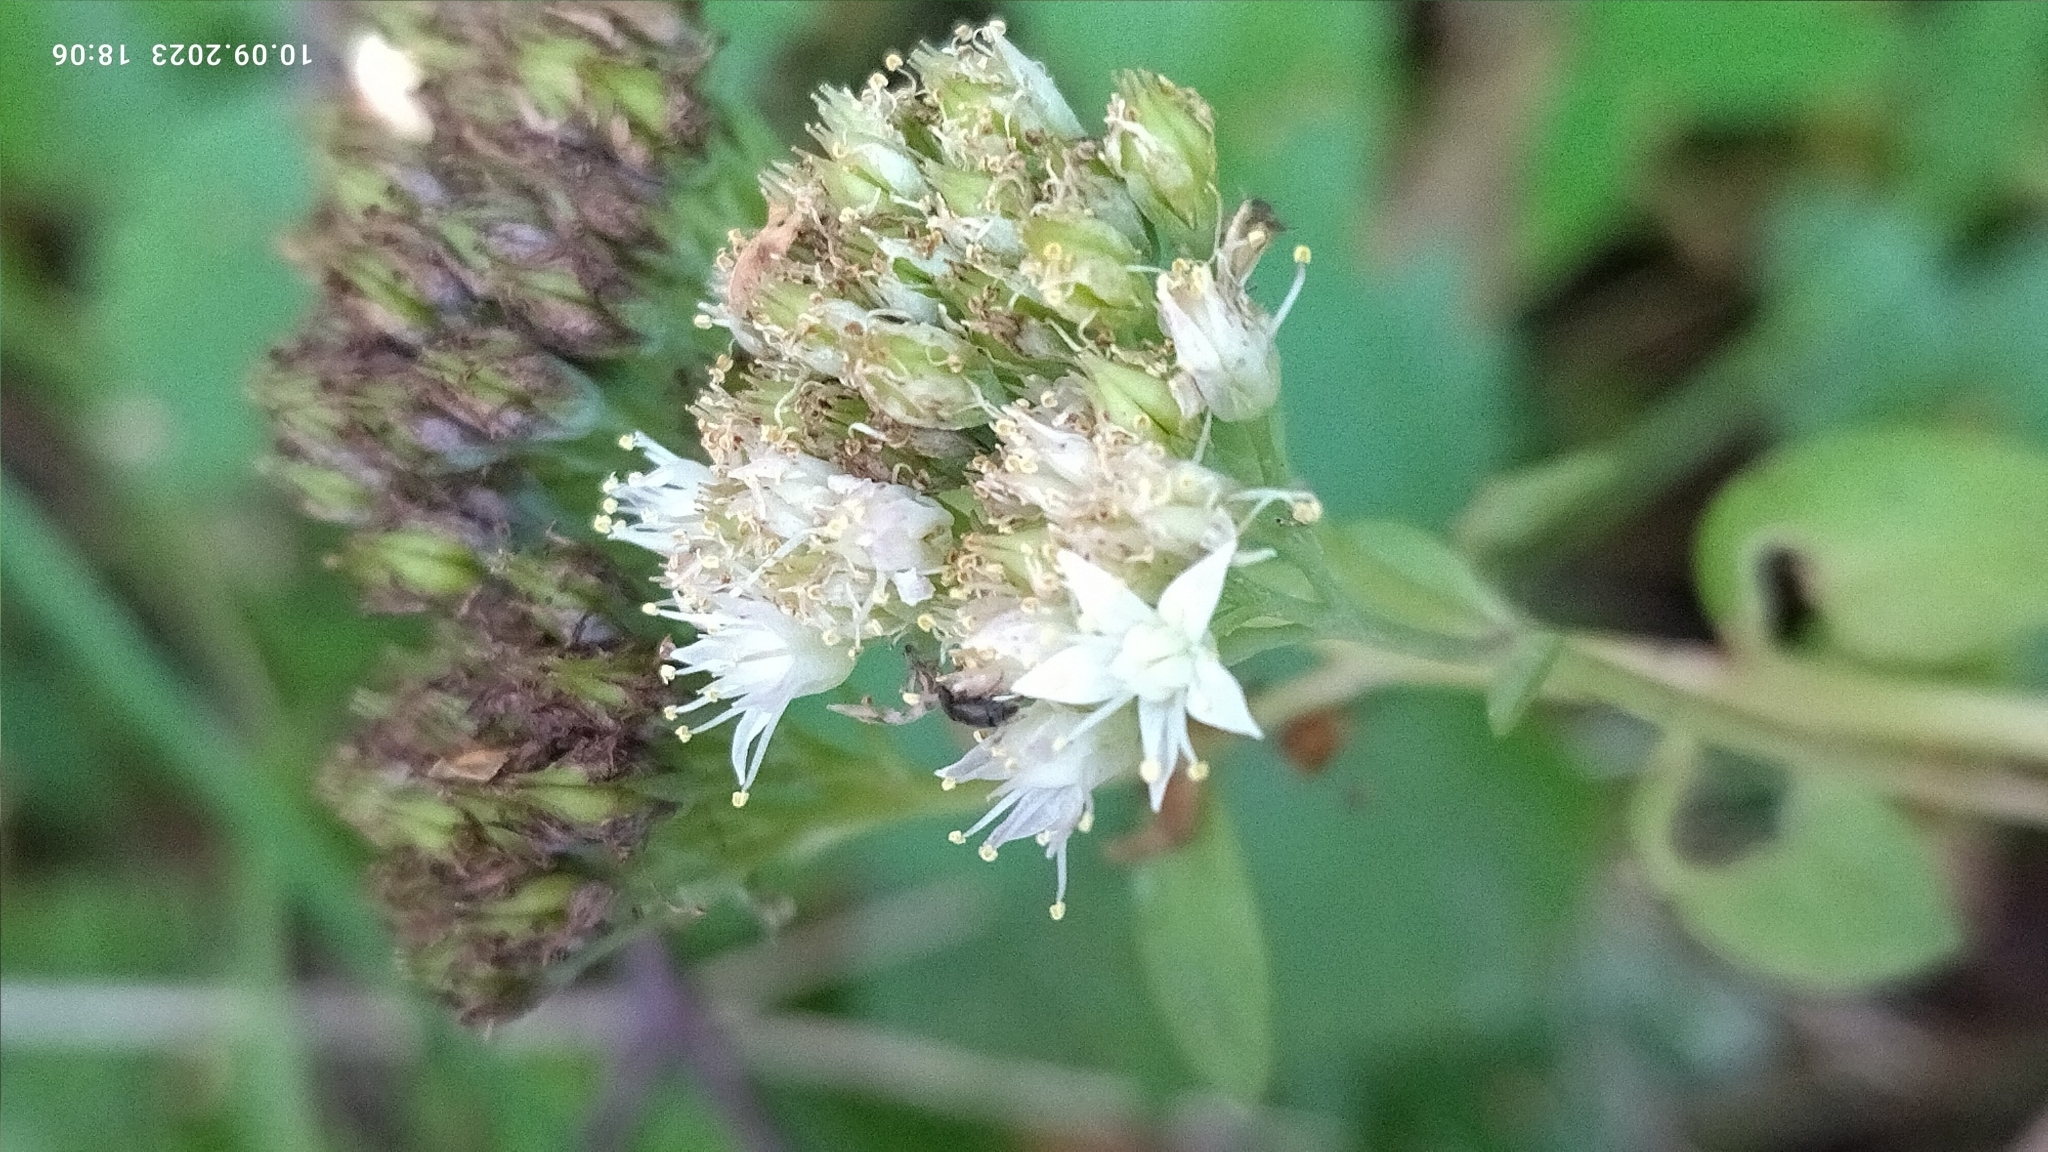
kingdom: Plantae
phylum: Tracheophyta
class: Magnoliopsida
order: Saxifragales
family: Crassulaceae
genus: Hylotelephium
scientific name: Hylotelephium maximum
